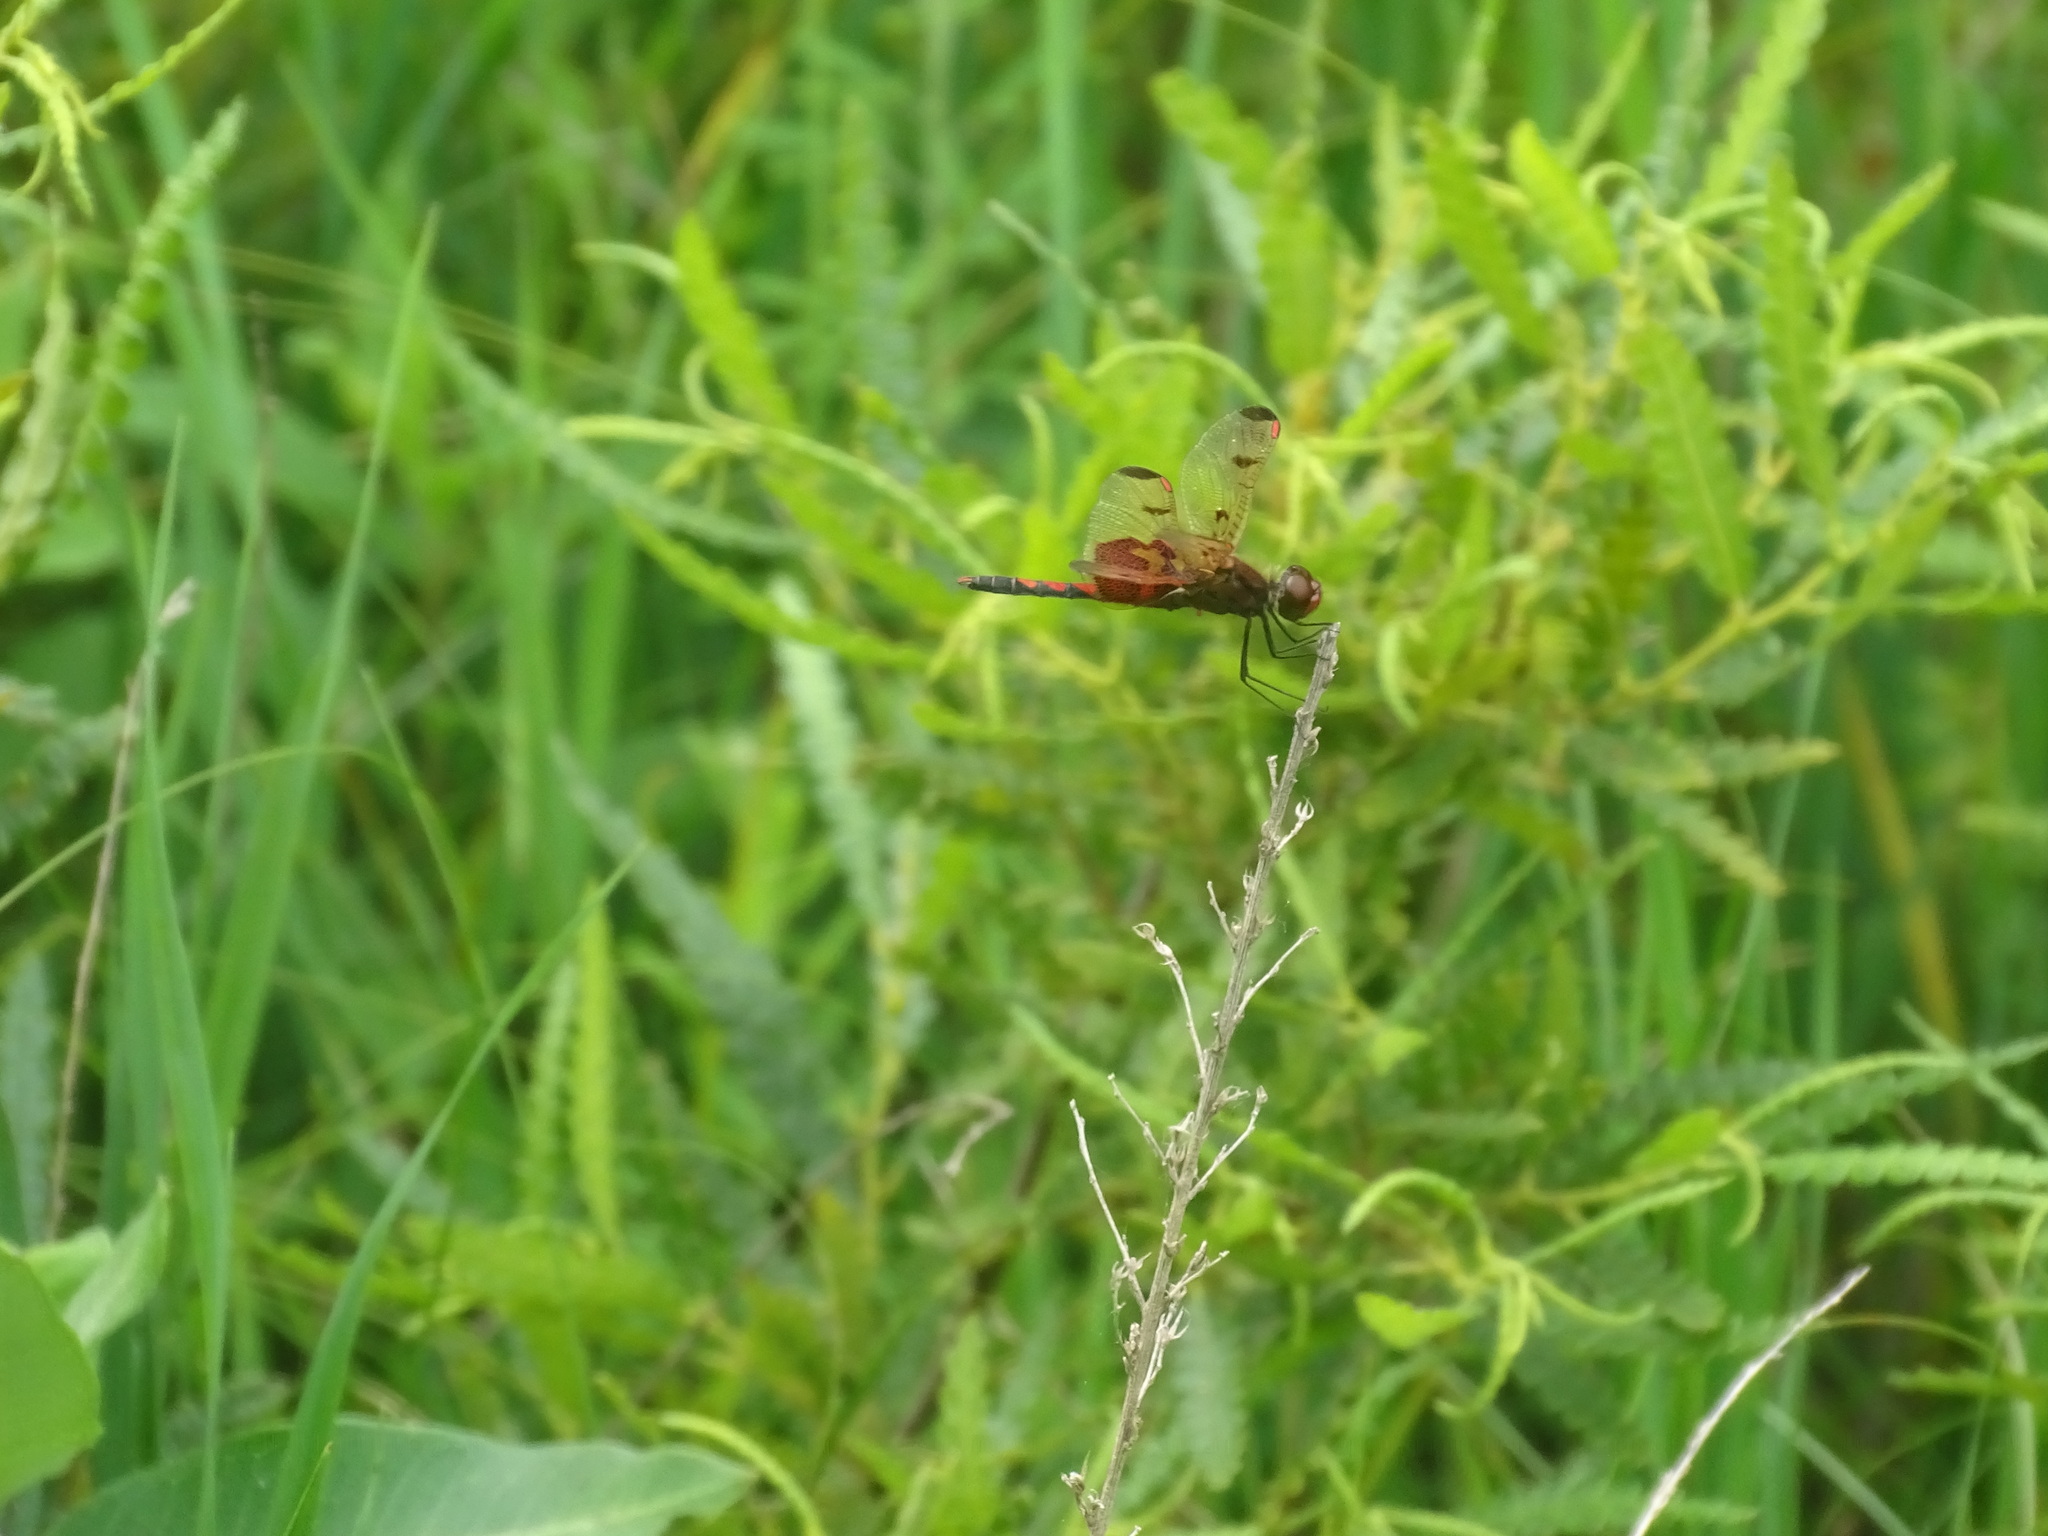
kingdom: Animalia
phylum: Arthropoda
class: Insecta
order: Odonata
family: Libellulidae
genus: Celithemis
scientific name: Celithemis elisa
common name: Calico pennant
